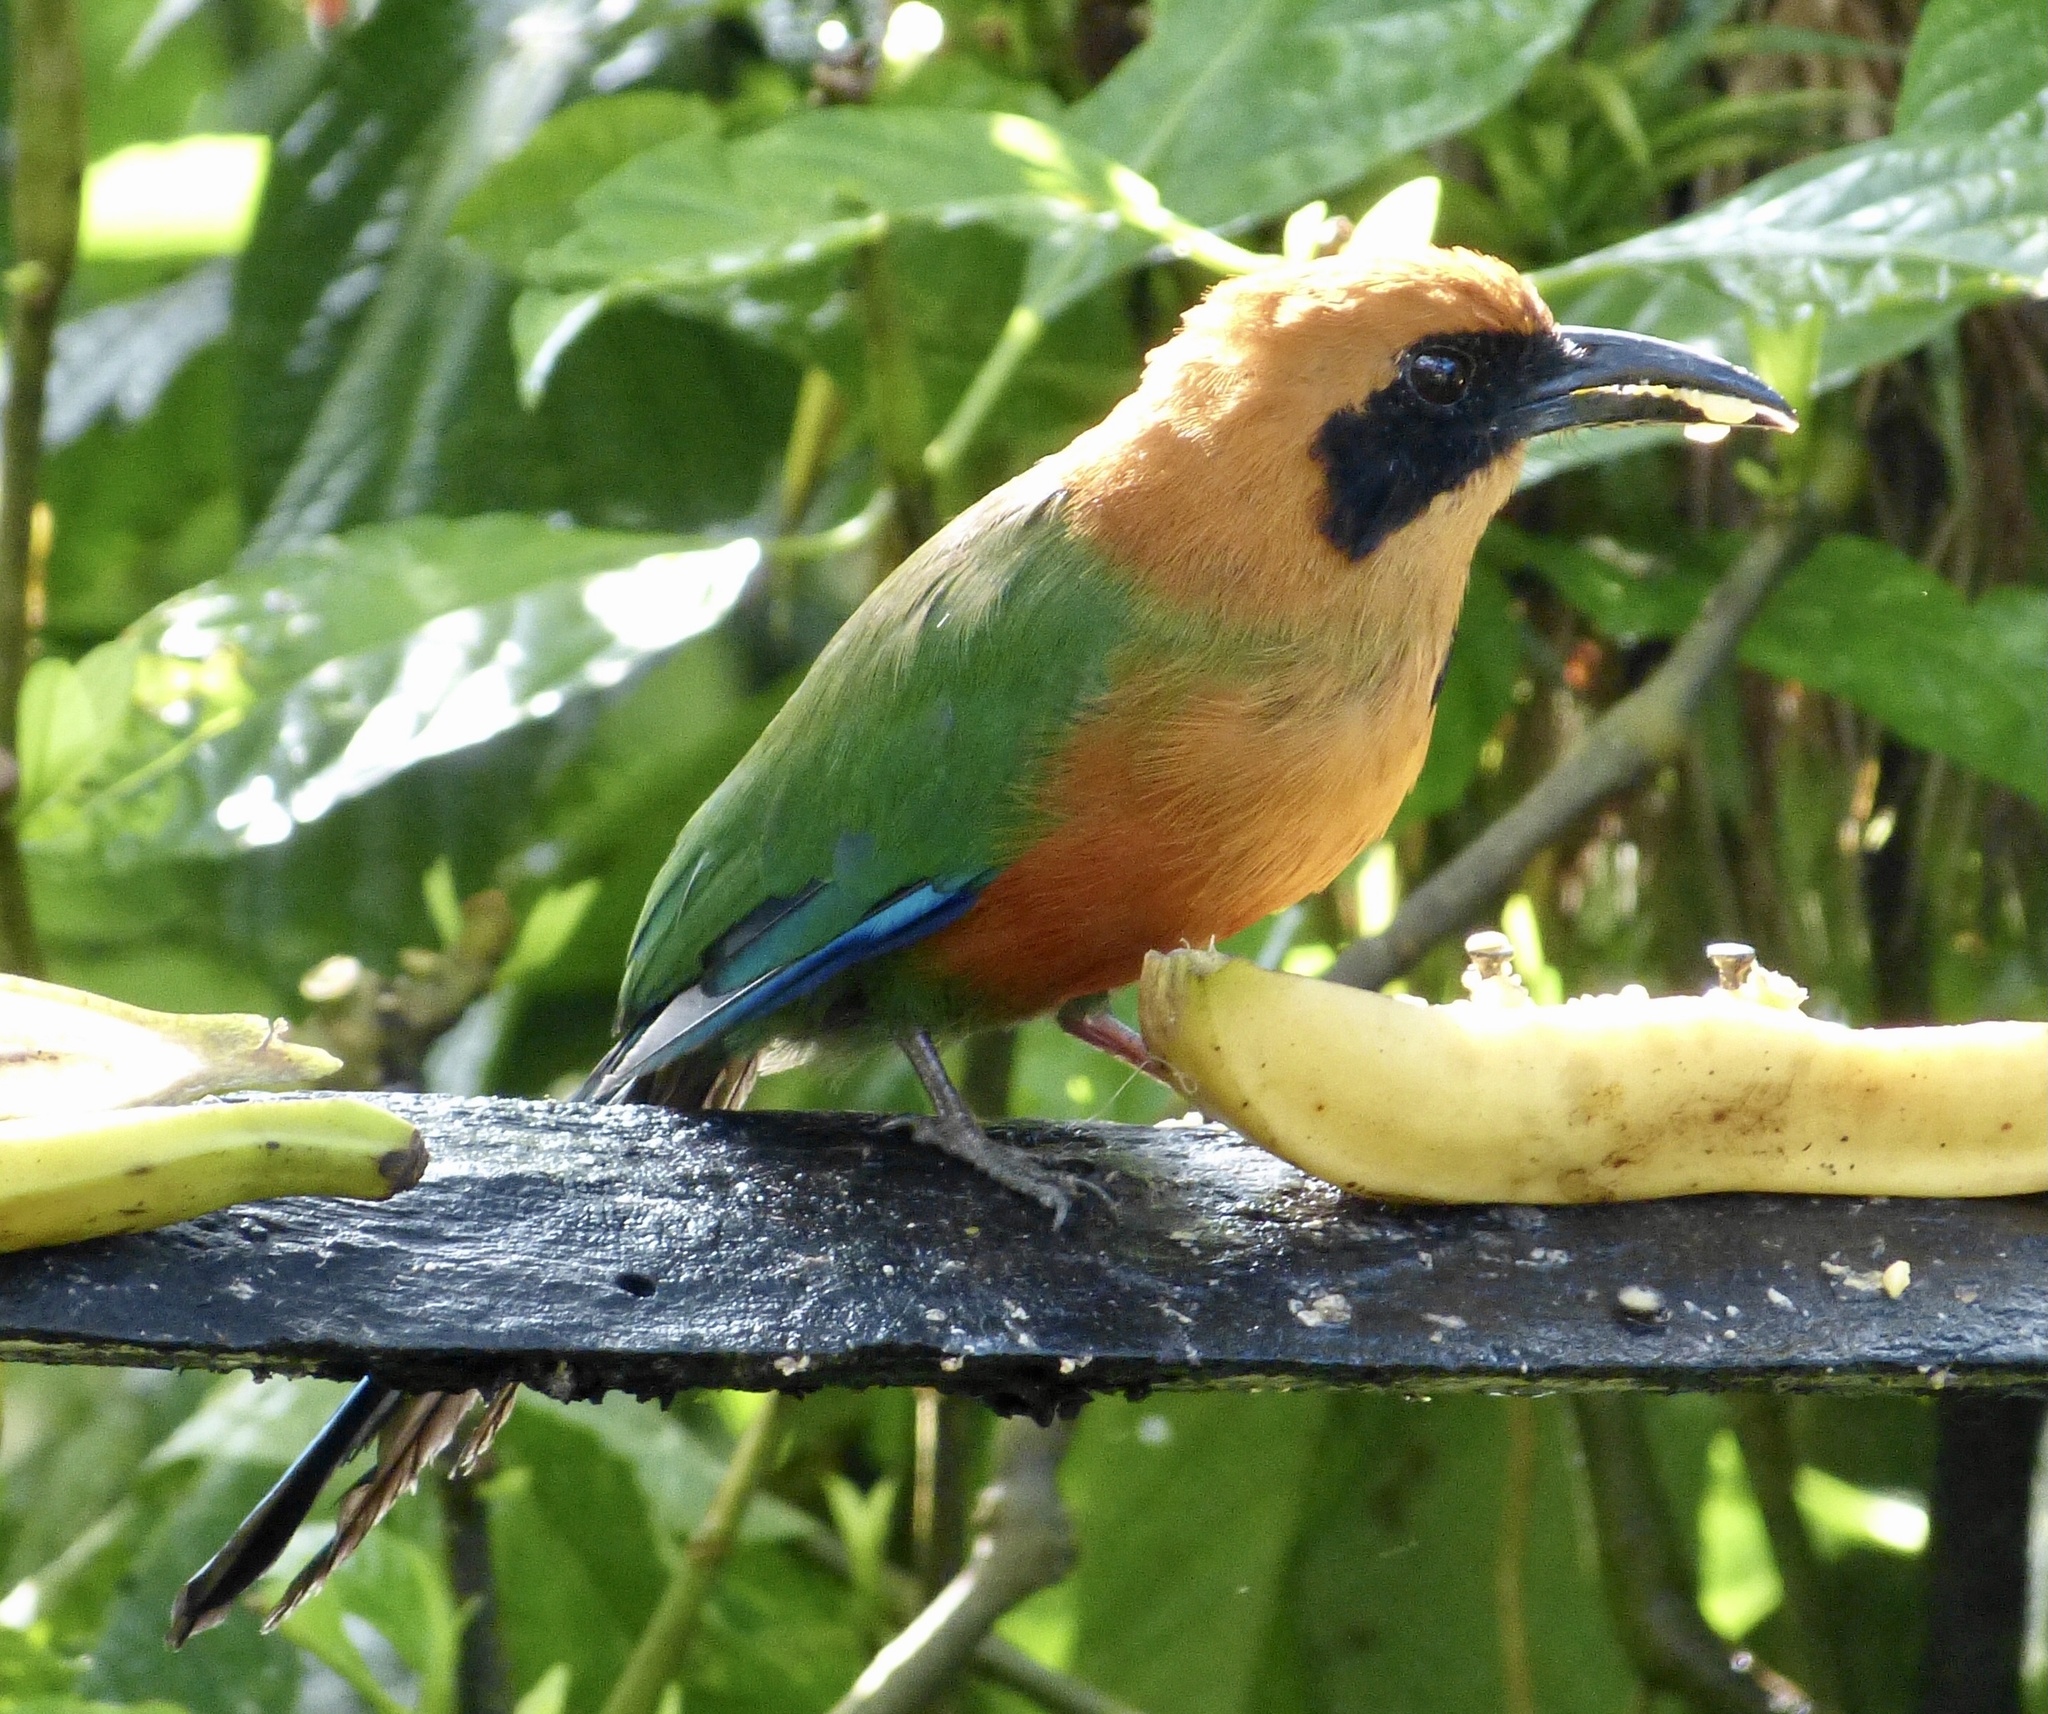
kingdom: Animalia
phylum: Chordata
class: Aves
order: Coraciiformes
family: Momotidae
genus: Baryphthengus
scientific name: Baryphthengus martii
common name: Rufous motmot
